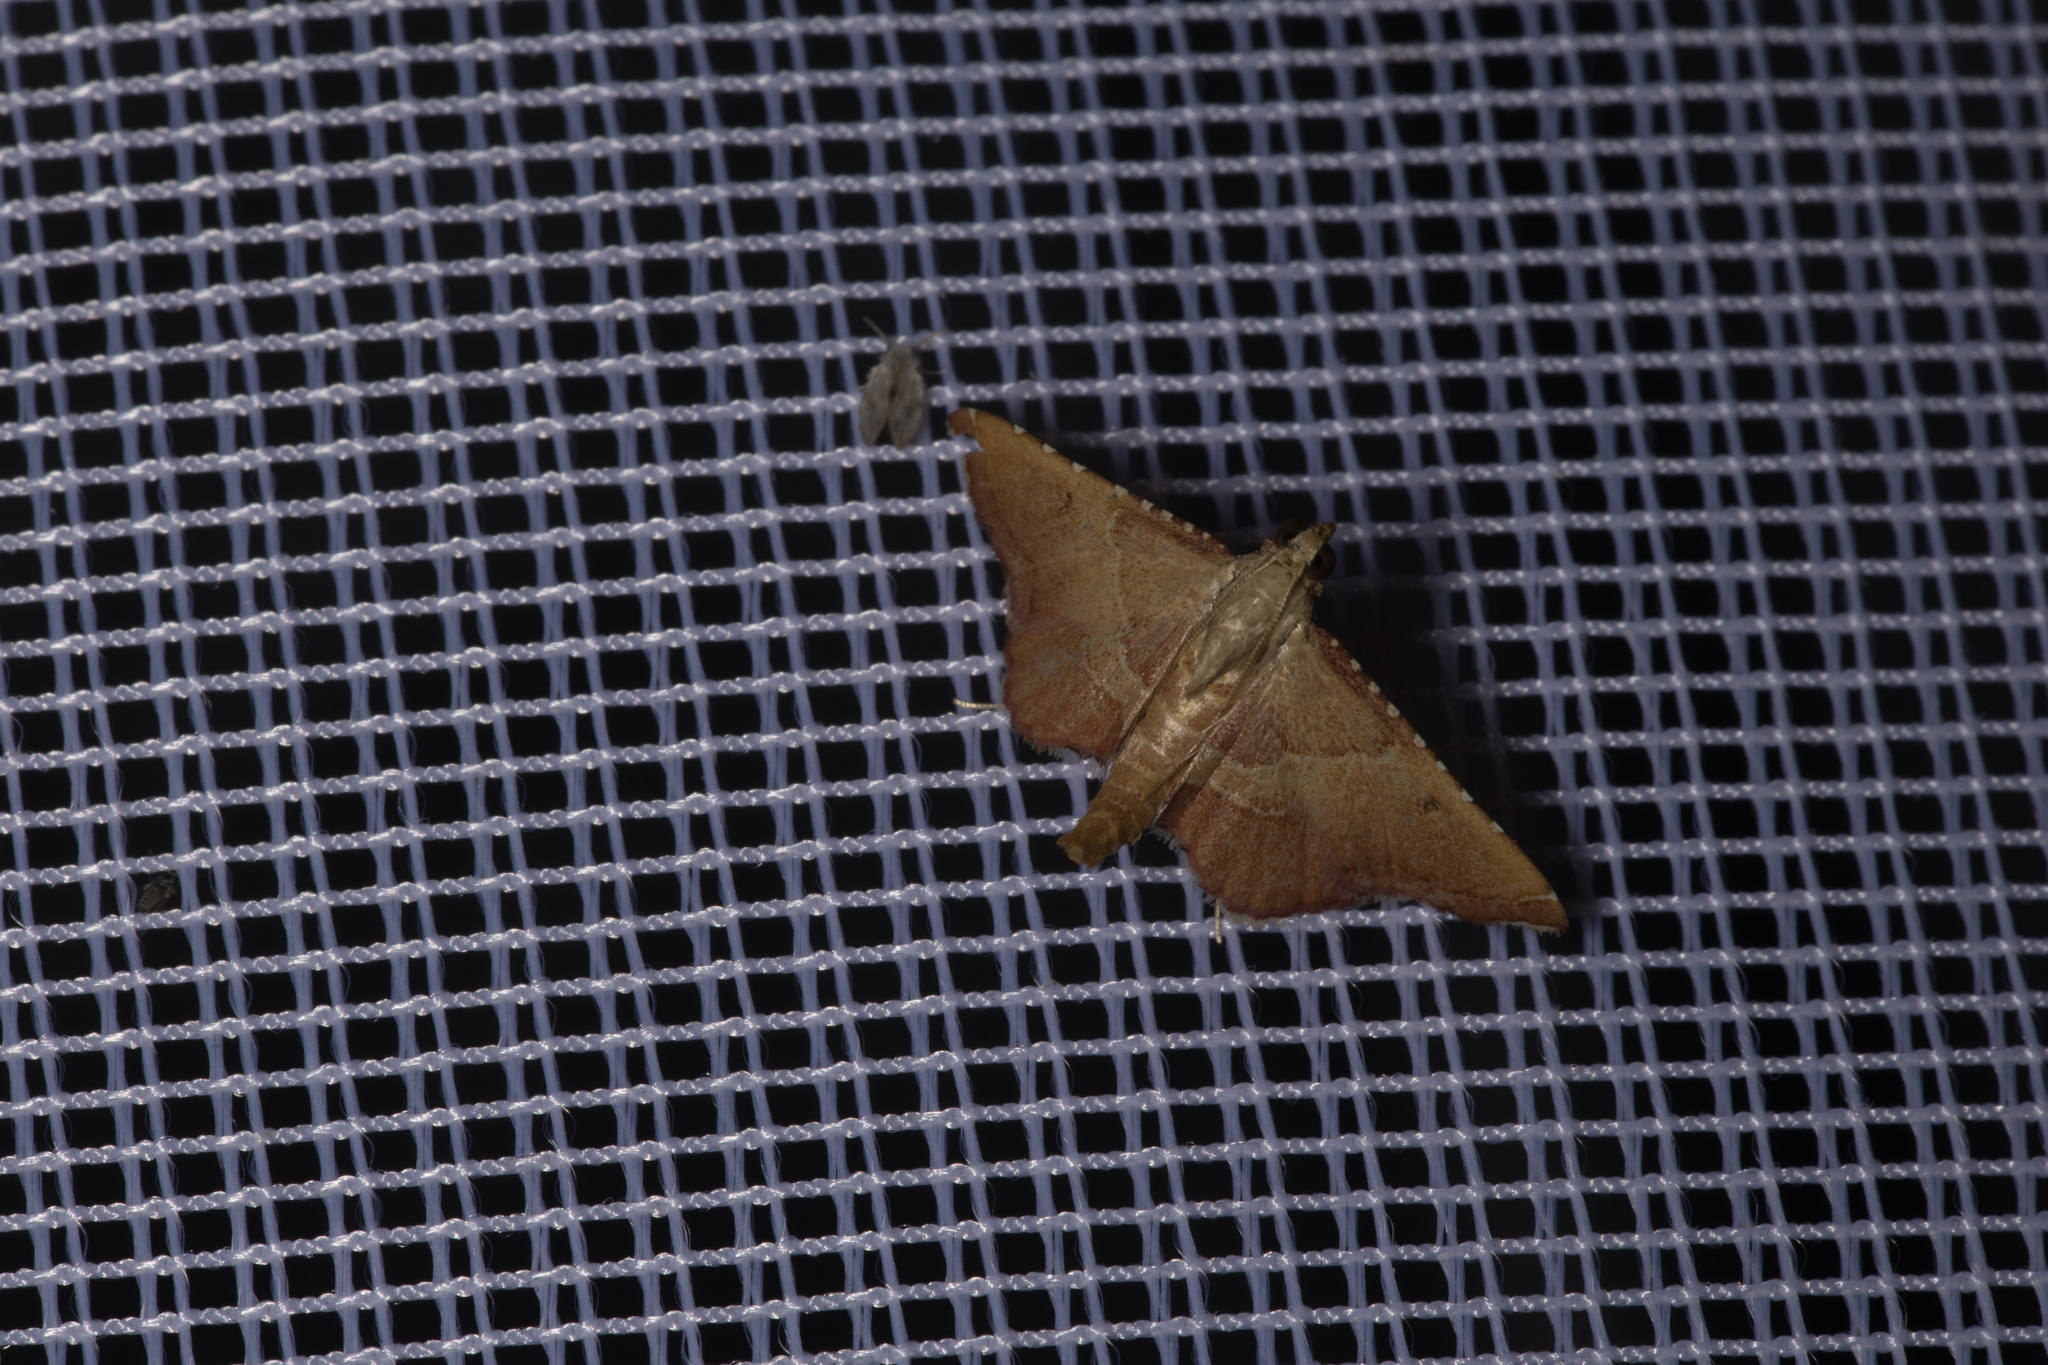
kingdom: Animalia
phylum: Arthropoda
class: Insecta
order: Lepidoptera
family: Pyralidae
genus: Endotricha
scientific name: Endotricha flammealis
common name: Rosy tabby
